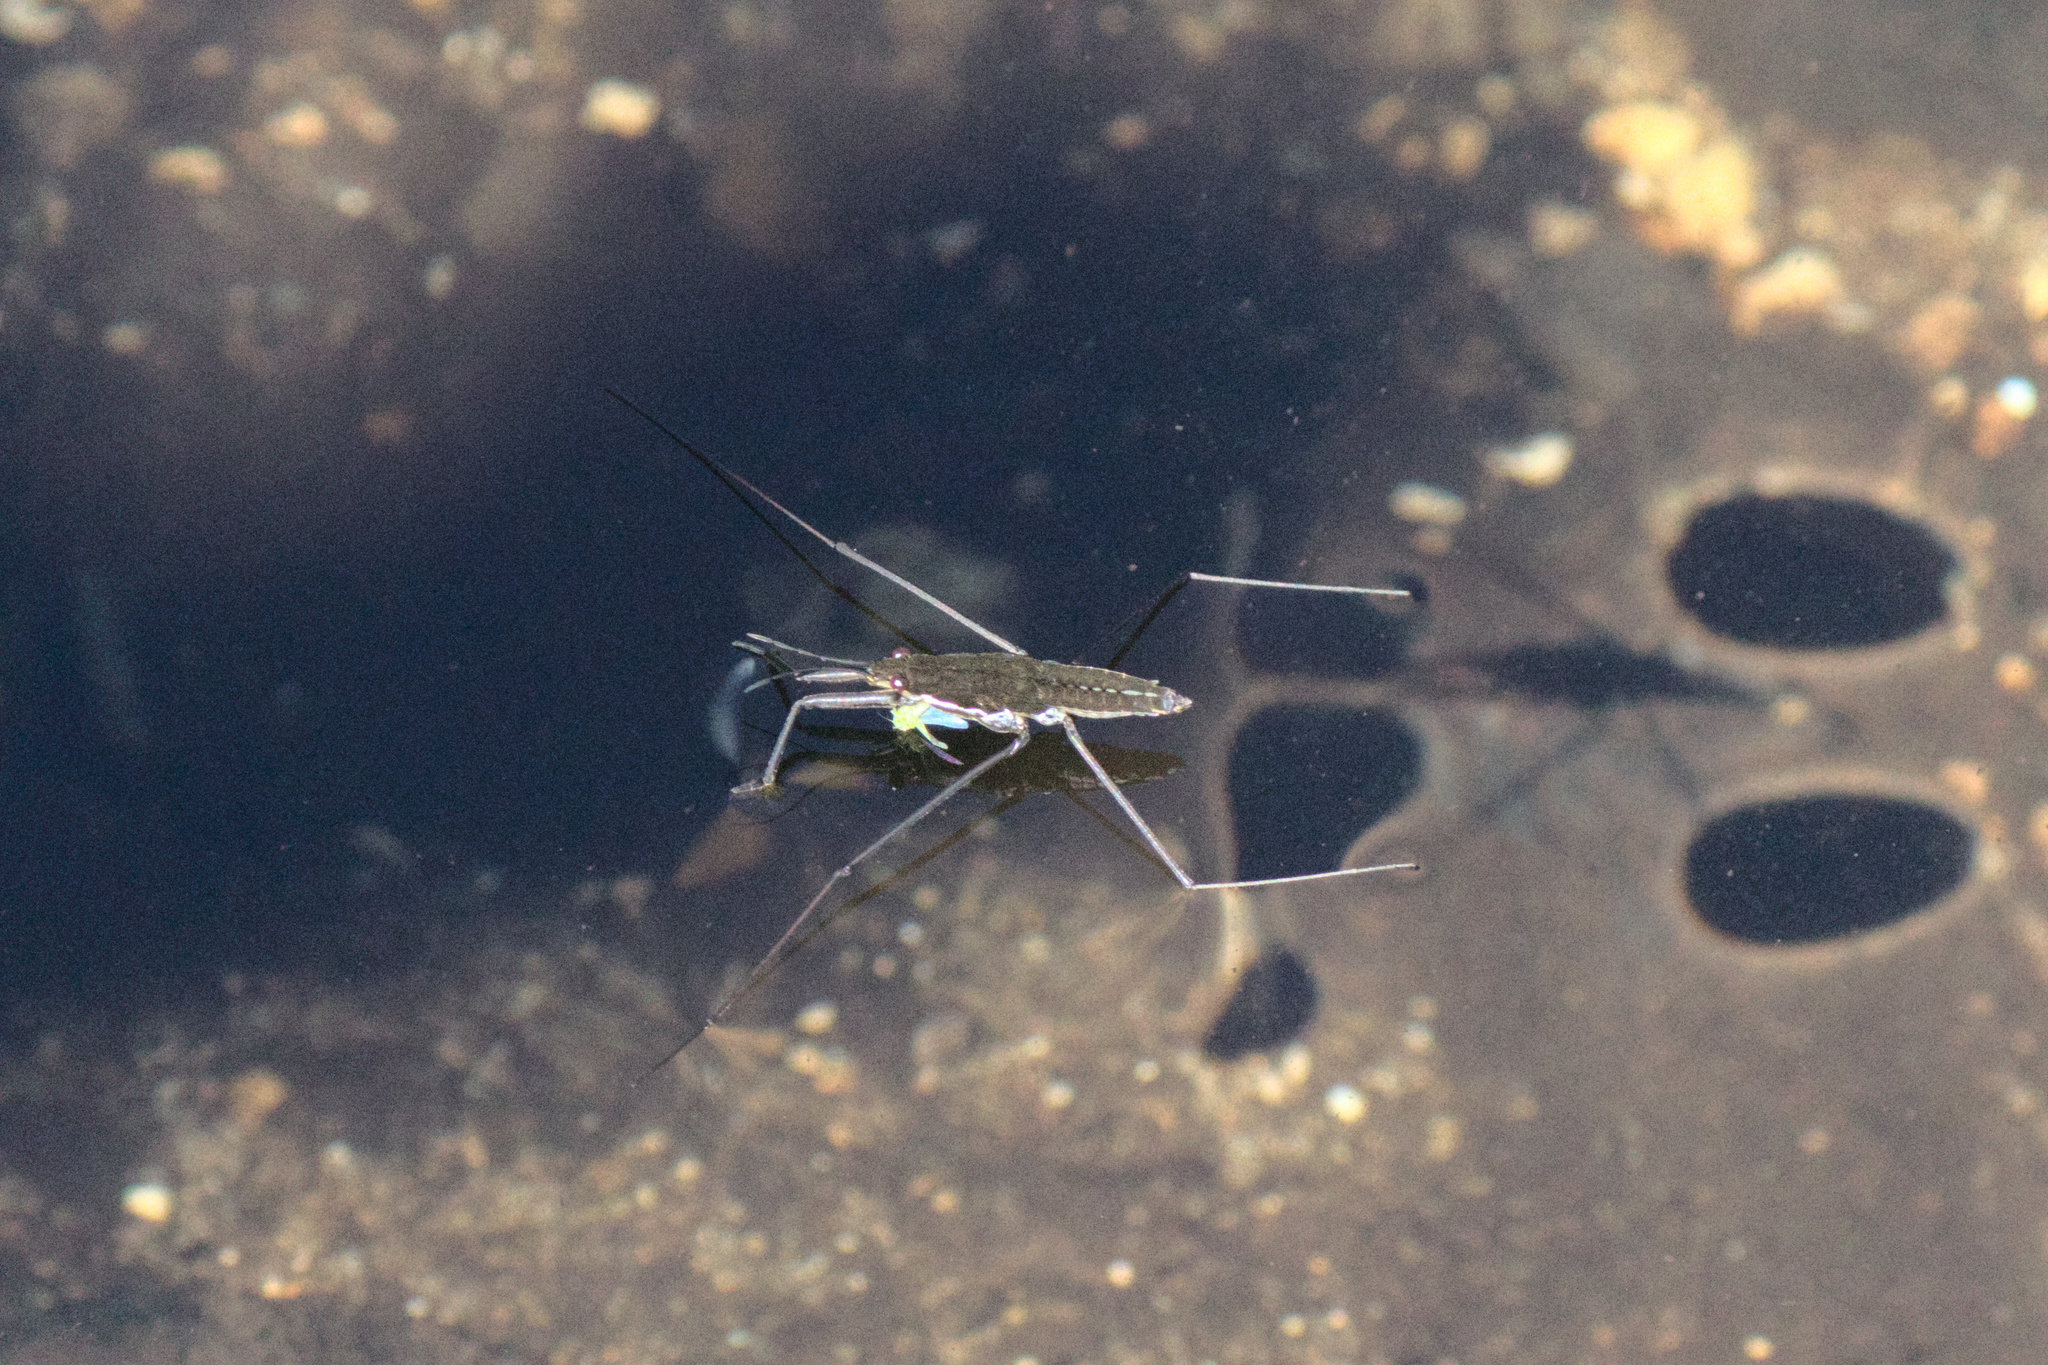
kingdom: Animalia
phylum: Arthropoda
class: Insecta
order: Hemiptera
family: Gerridae
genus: Aquarius
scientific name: Aquarius remigis
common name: Common water strider
